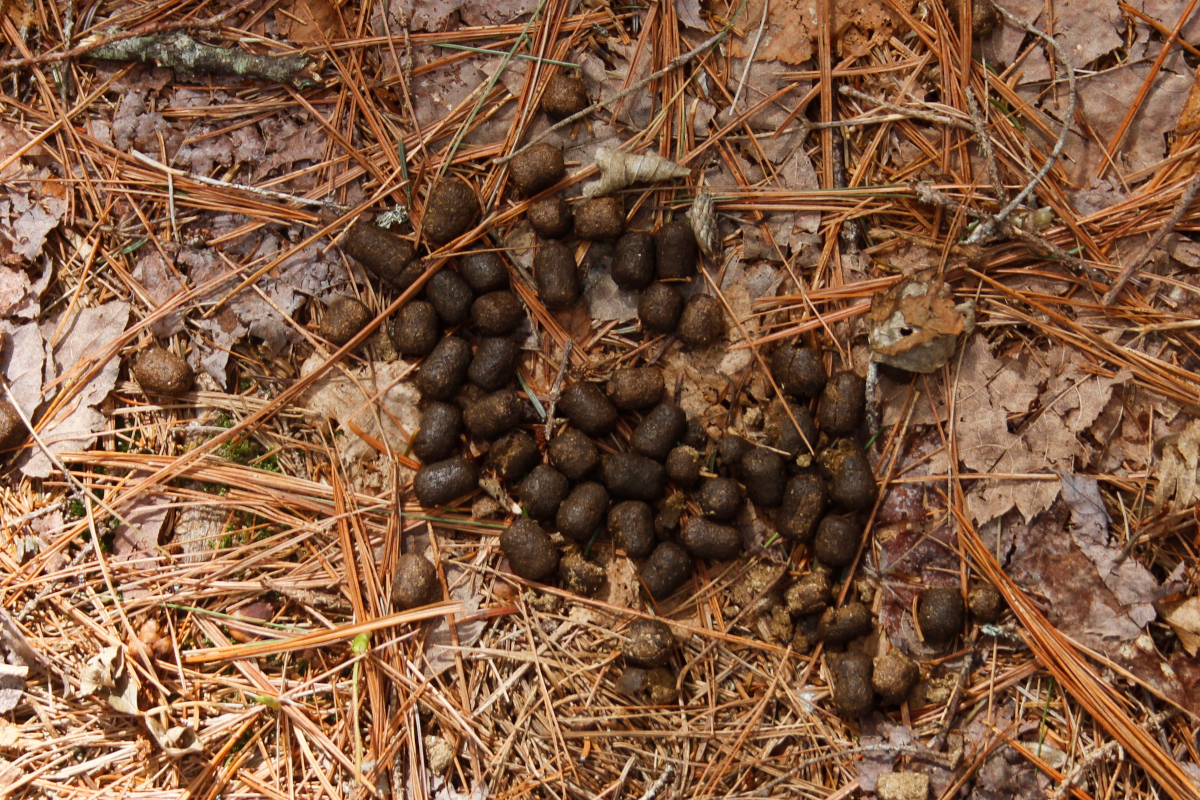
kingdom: Animalia
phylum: Chordata
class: Mammalia
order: Artiodactyla
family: Cervidae
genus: Odocoileus
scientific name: Odocoileus virginianus
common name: White-tailed deer
